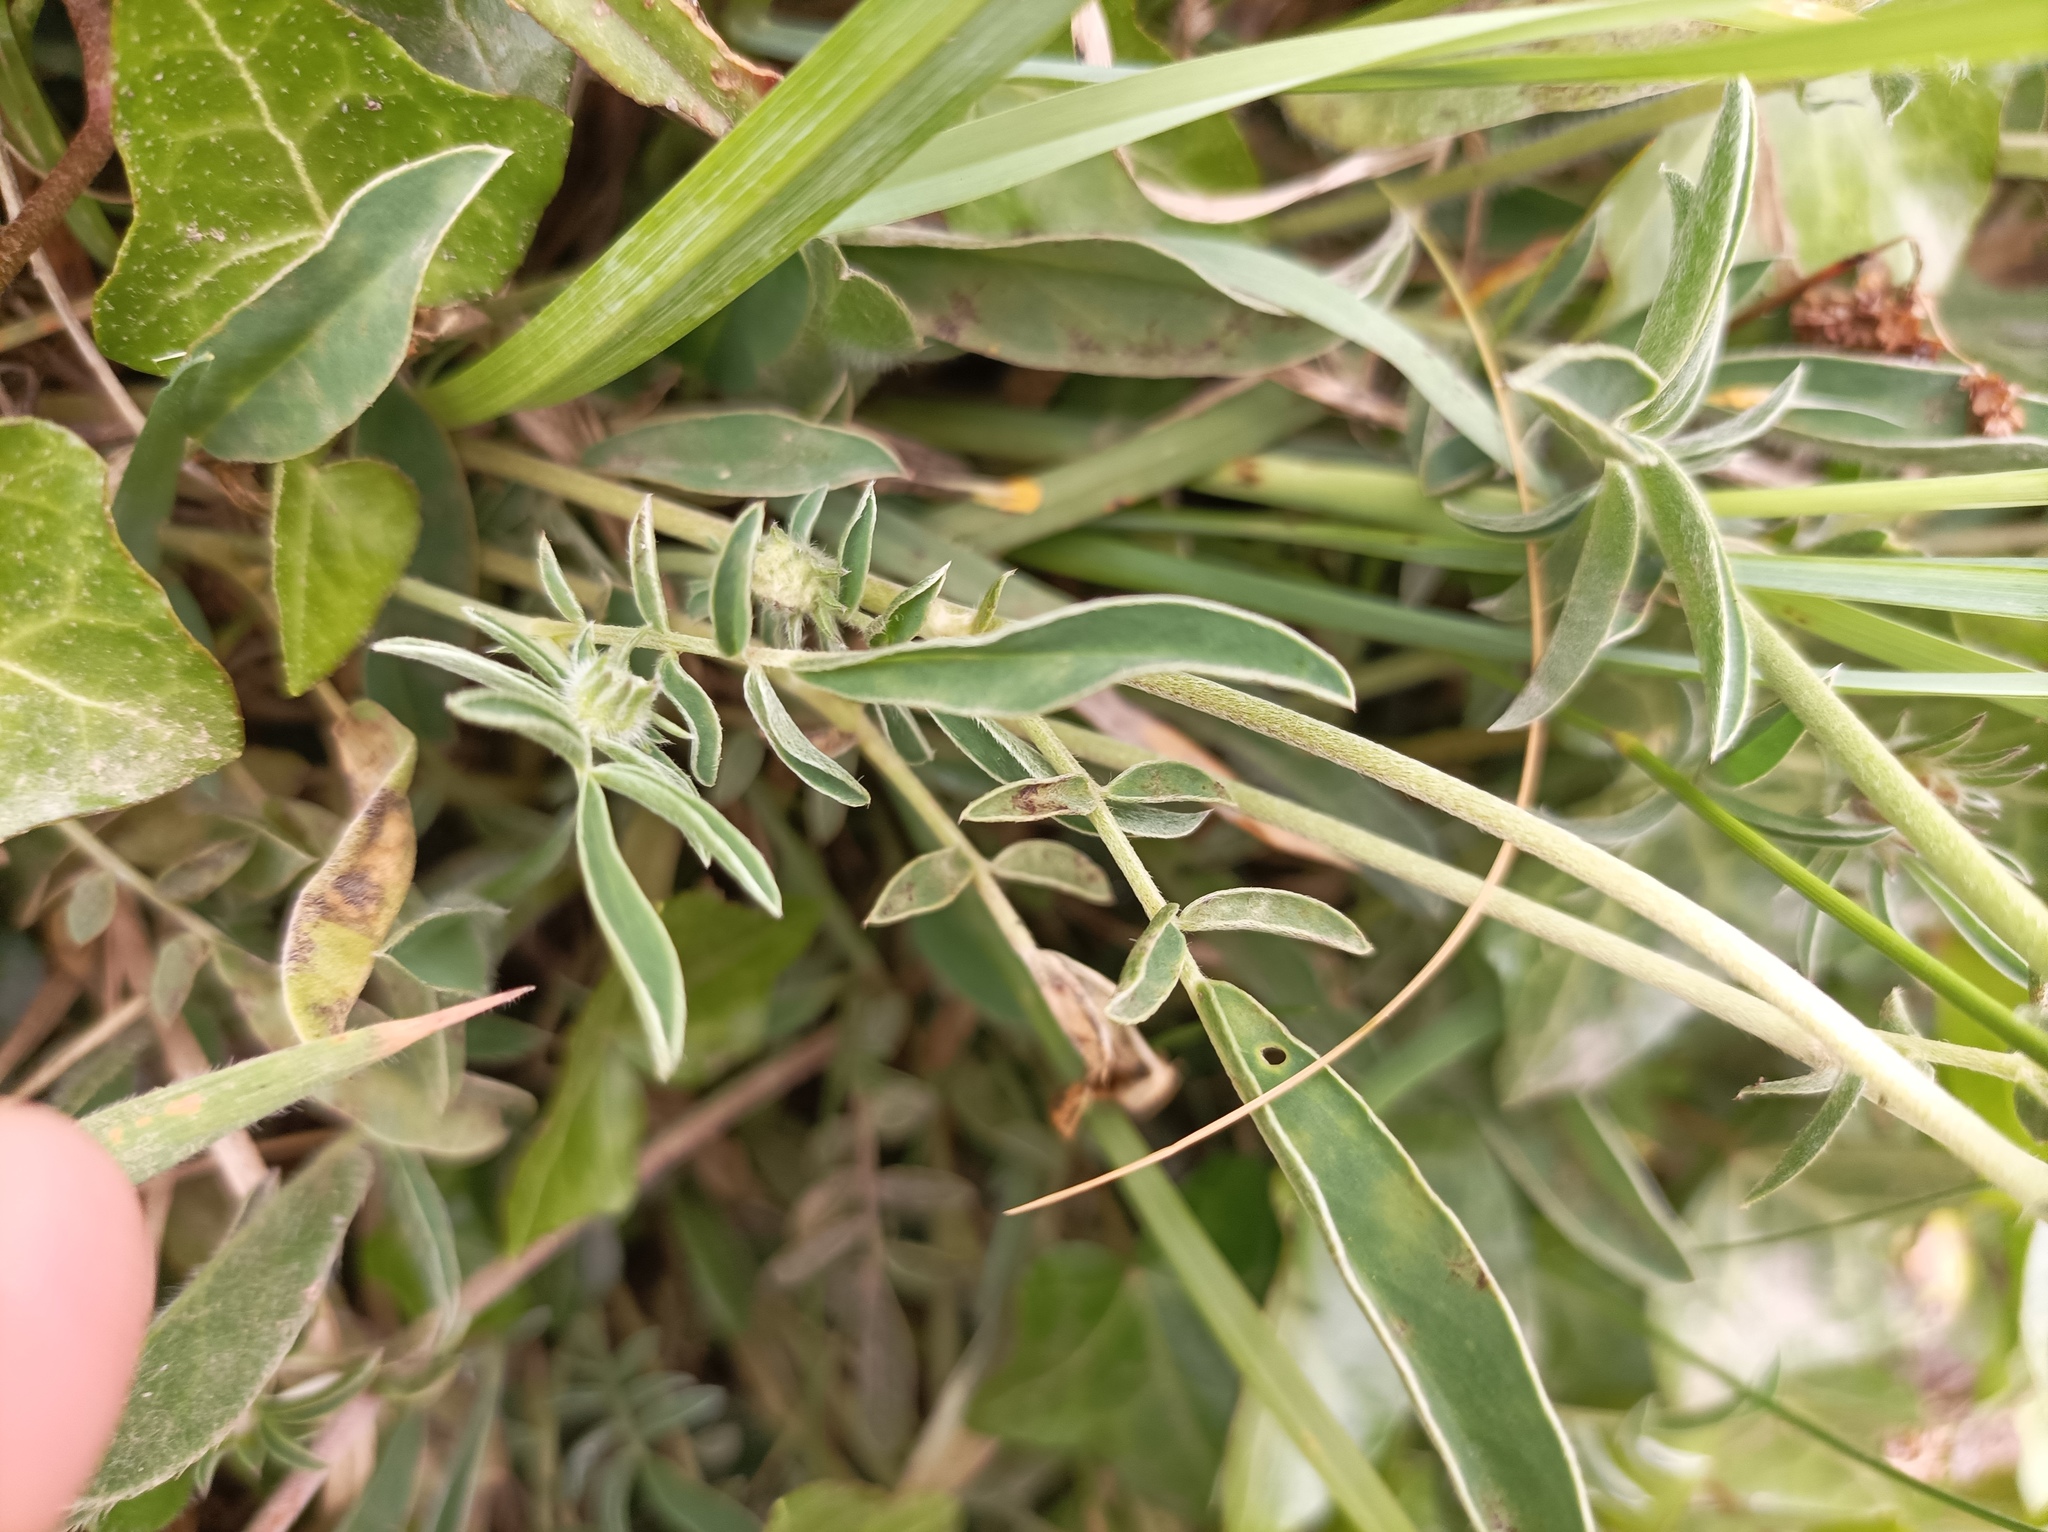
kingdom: Plantae
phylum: Tracheophyta
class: Magnoliopsida
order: Fabales
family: Fabaceae
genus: Anthyllis
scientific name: Anthyllis vulneraria
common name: Kidney vetch
